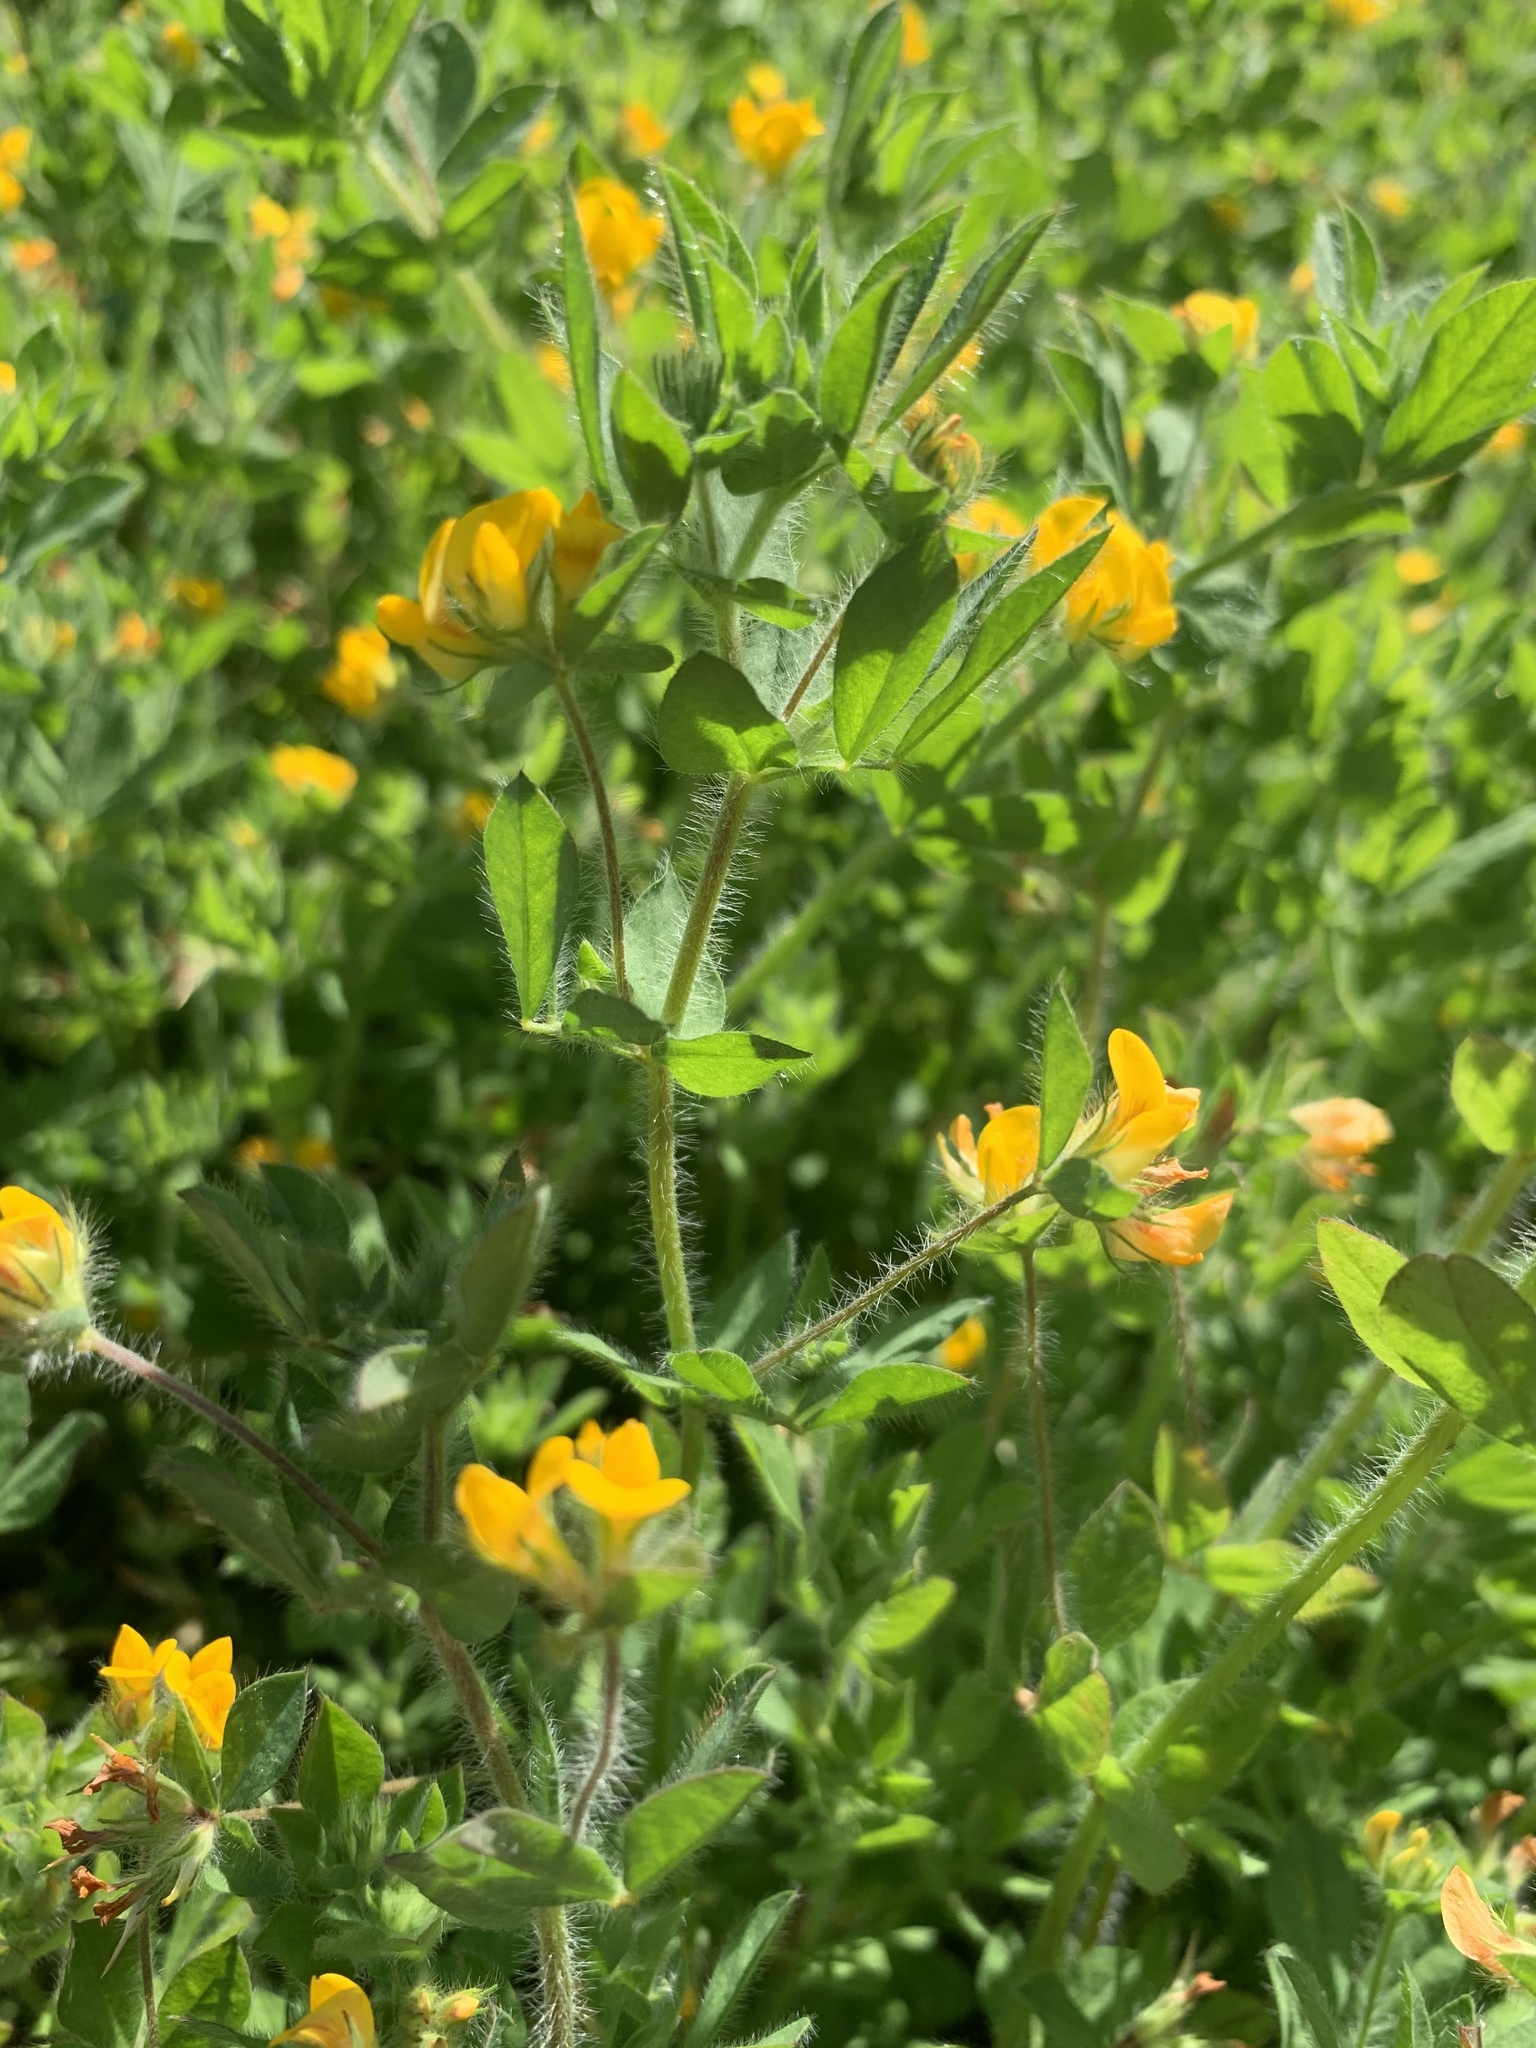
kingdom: Plantae
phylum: Tracheophyta
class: Magnoliopsida
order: Fabales
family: Fabaceae
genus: Lotus
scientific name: Lotus subbiflorus
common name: Hairy bird's-foot trefoil
